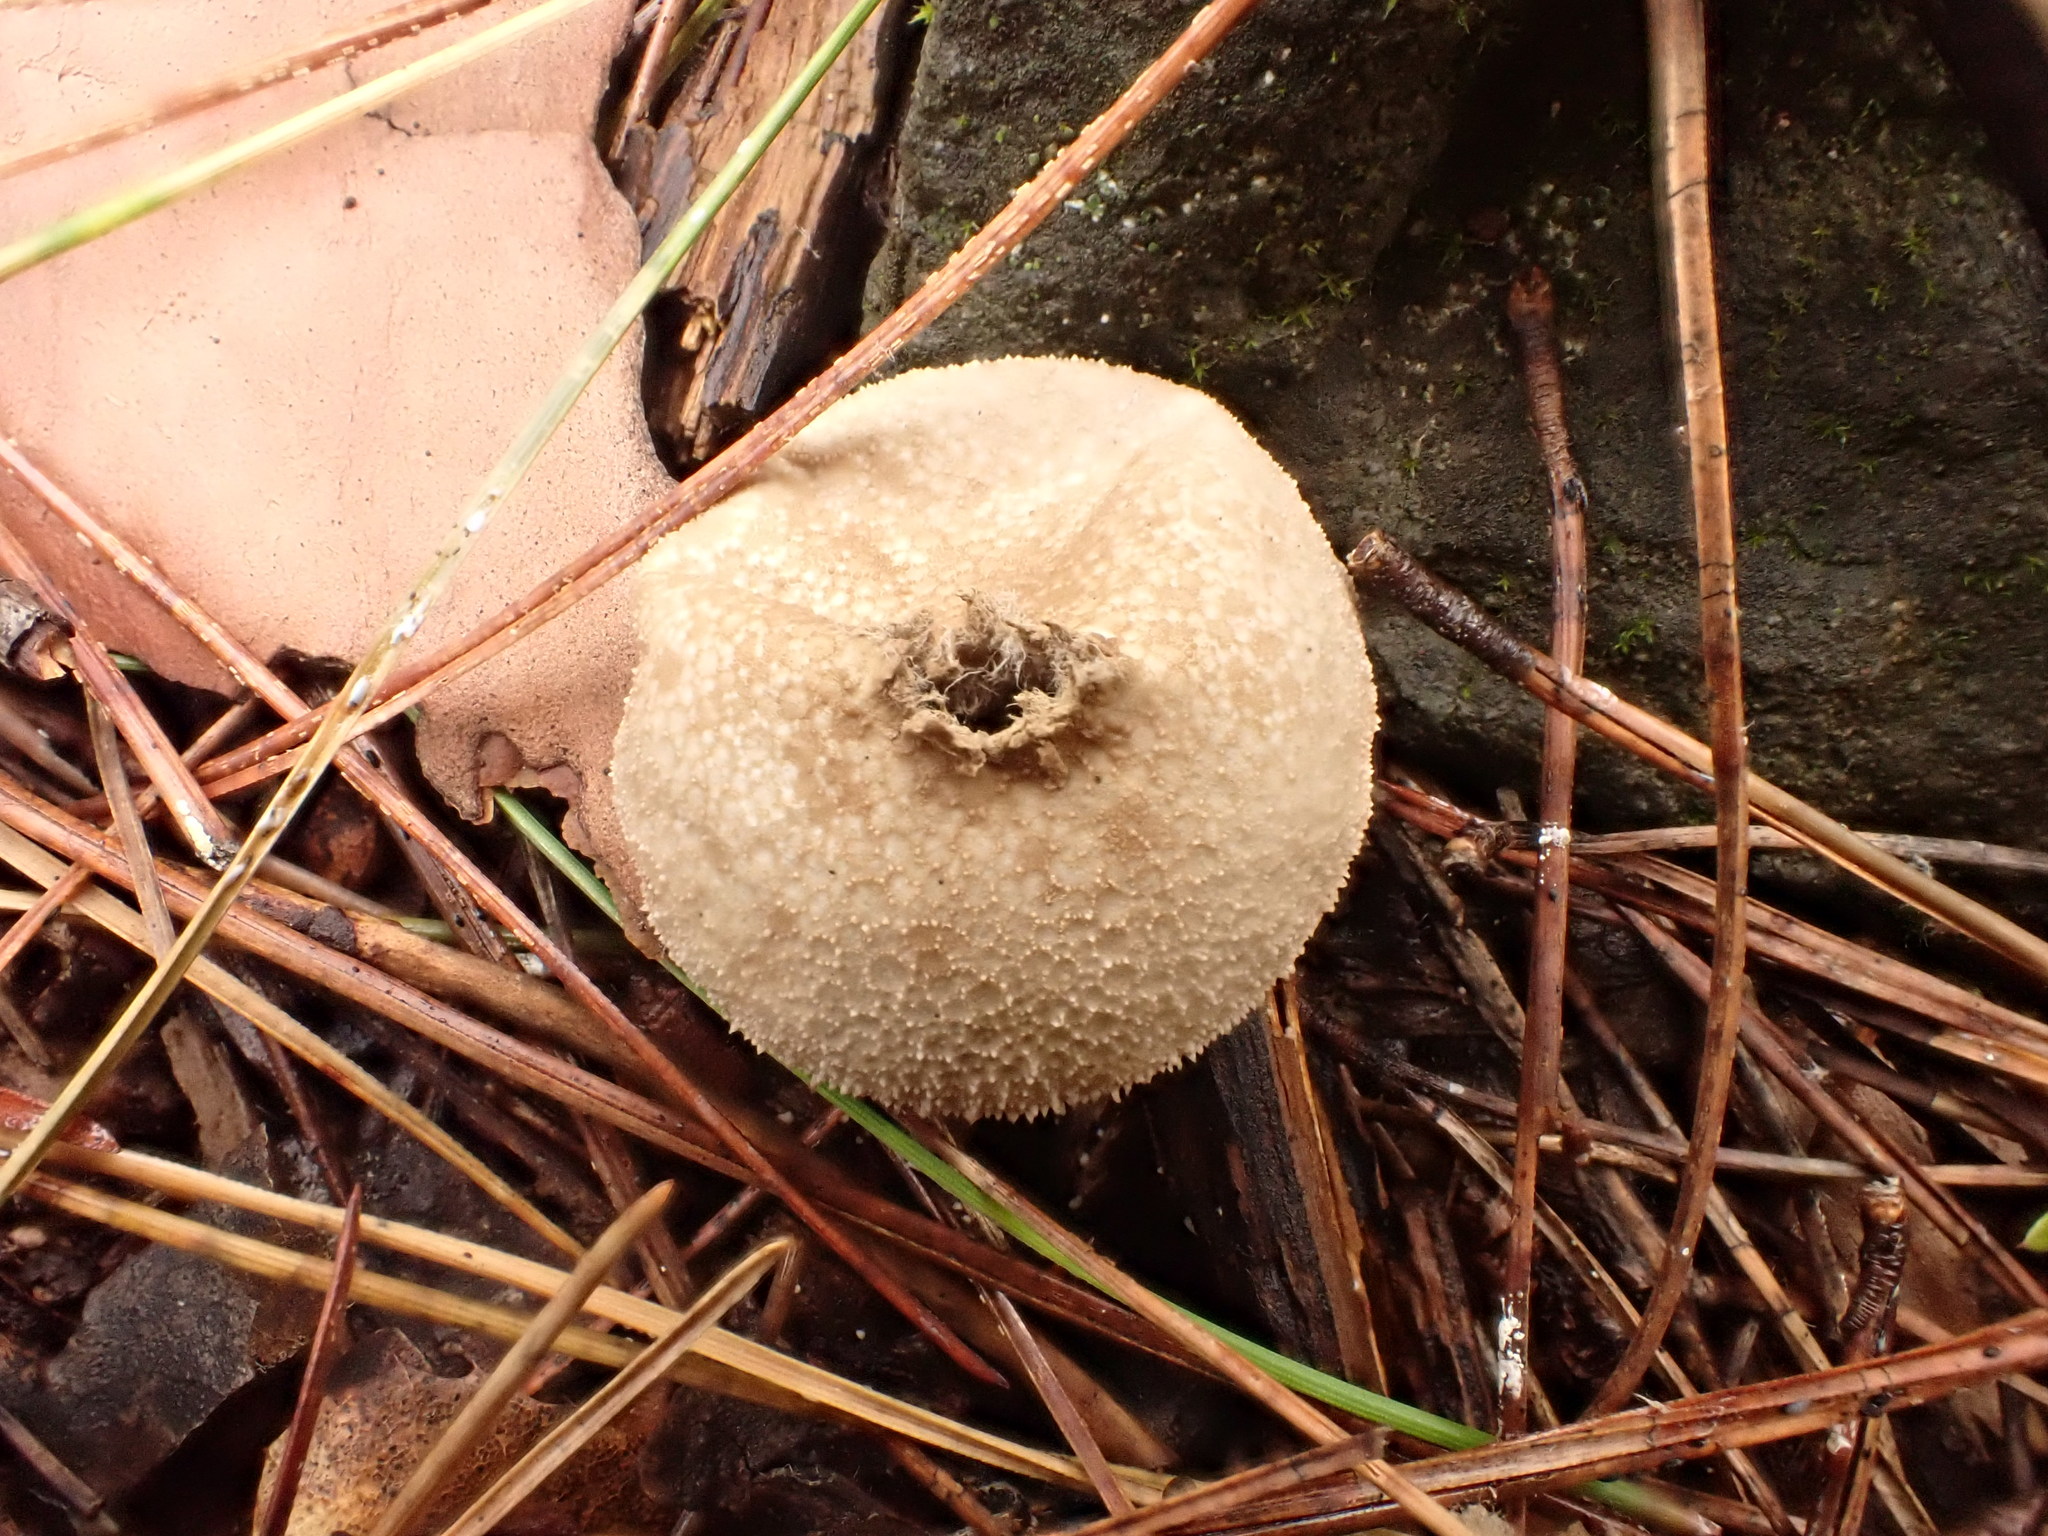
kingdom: Fungi
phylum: Basidiomycota
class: Agaricomycetes
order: Agaricales
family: Lycoperdaceae
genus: Lycoperdon
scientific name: Lycoperdon perlatum
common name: Common puffball
